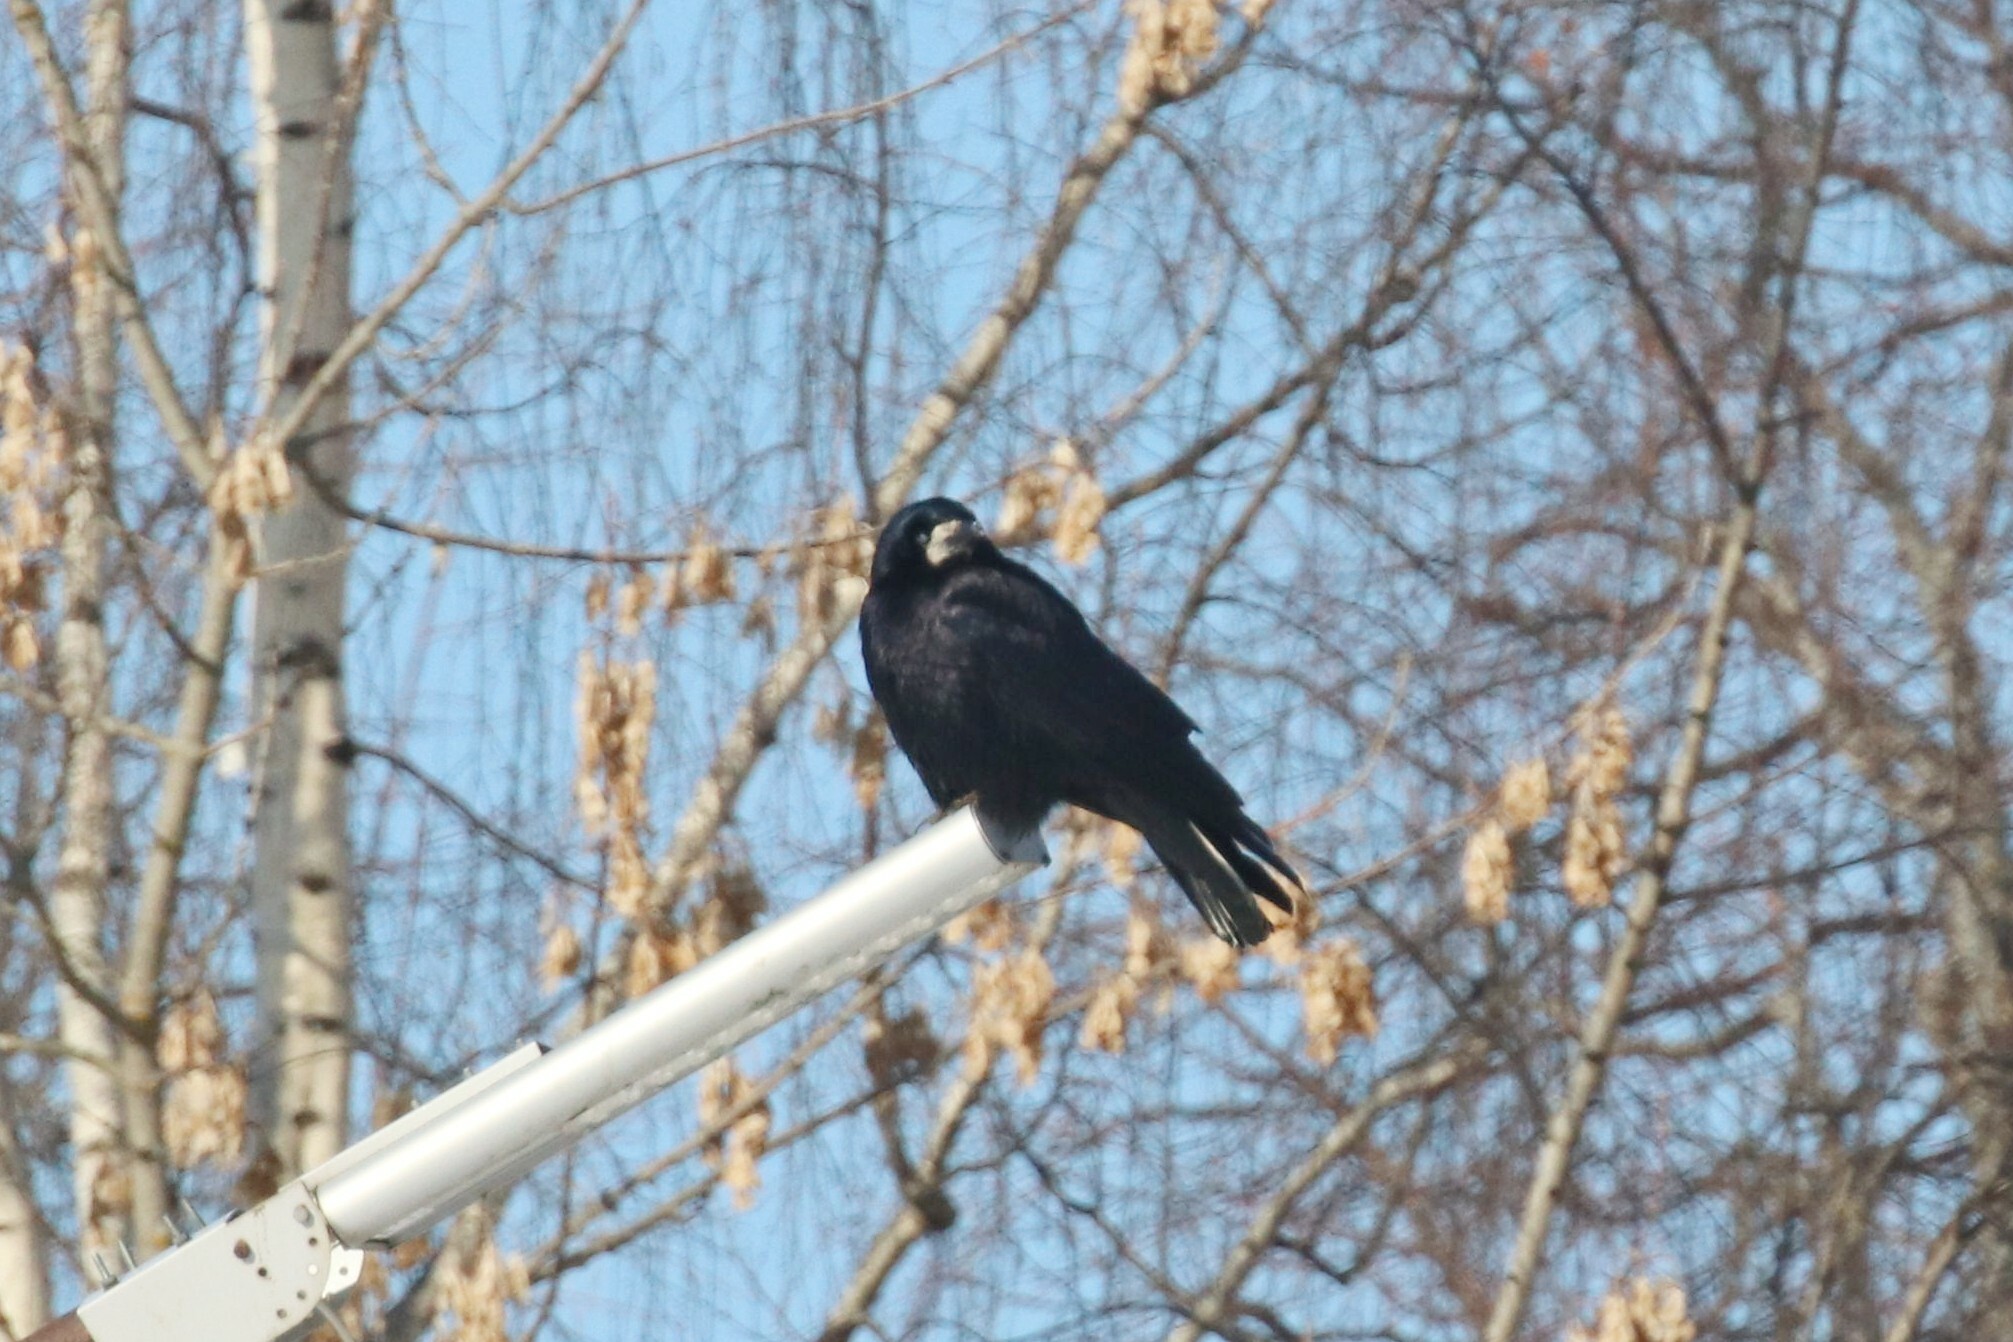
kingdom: Animalia
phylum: Chordata
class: Aves
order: Passeriformes
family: Corvidae
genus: Corvus
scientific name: Corvus frugilegus
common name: Rook
